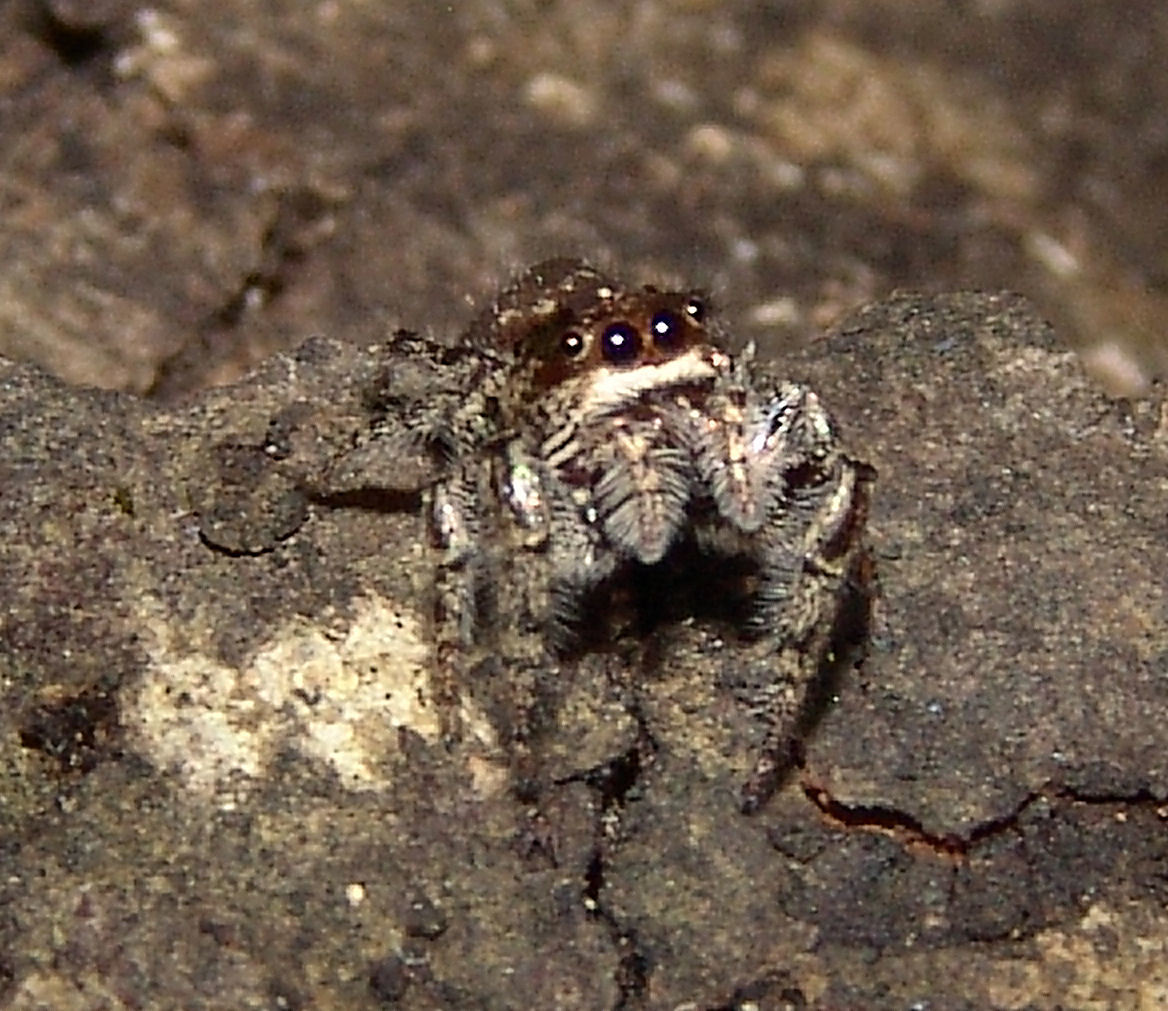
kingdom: Animalia
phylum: Arthropoda
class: Arachnida
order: Araneae
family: Salticidae
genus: Eris
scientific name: Eris militaris
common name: Bronze jumper
